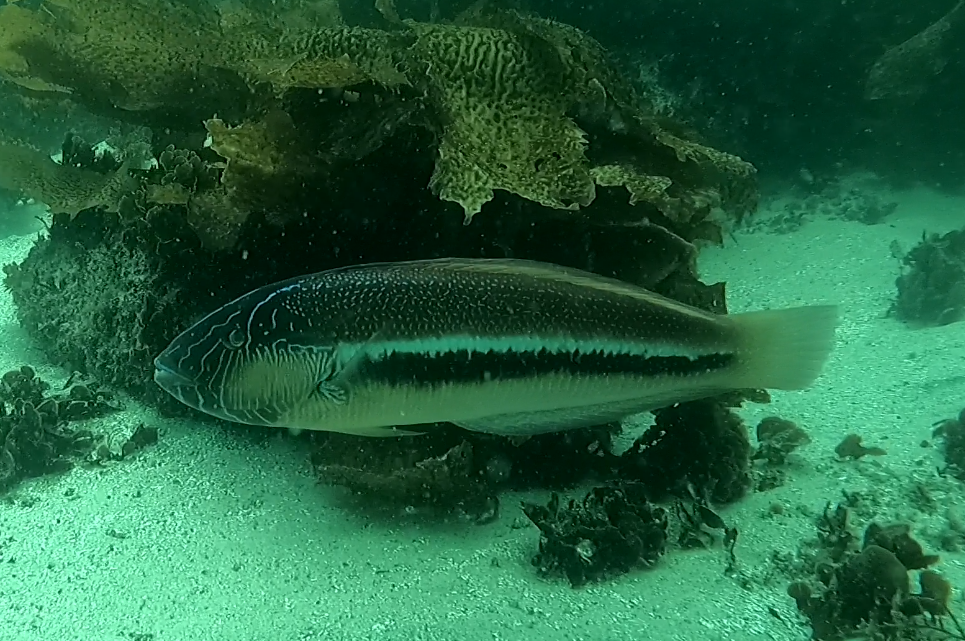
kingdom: Animalia
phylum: Chordata
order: Perciformes
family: Labridae
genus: Ophthalmolepis
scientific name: Ophthalmolepis lineolata
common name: Maori wrasse
